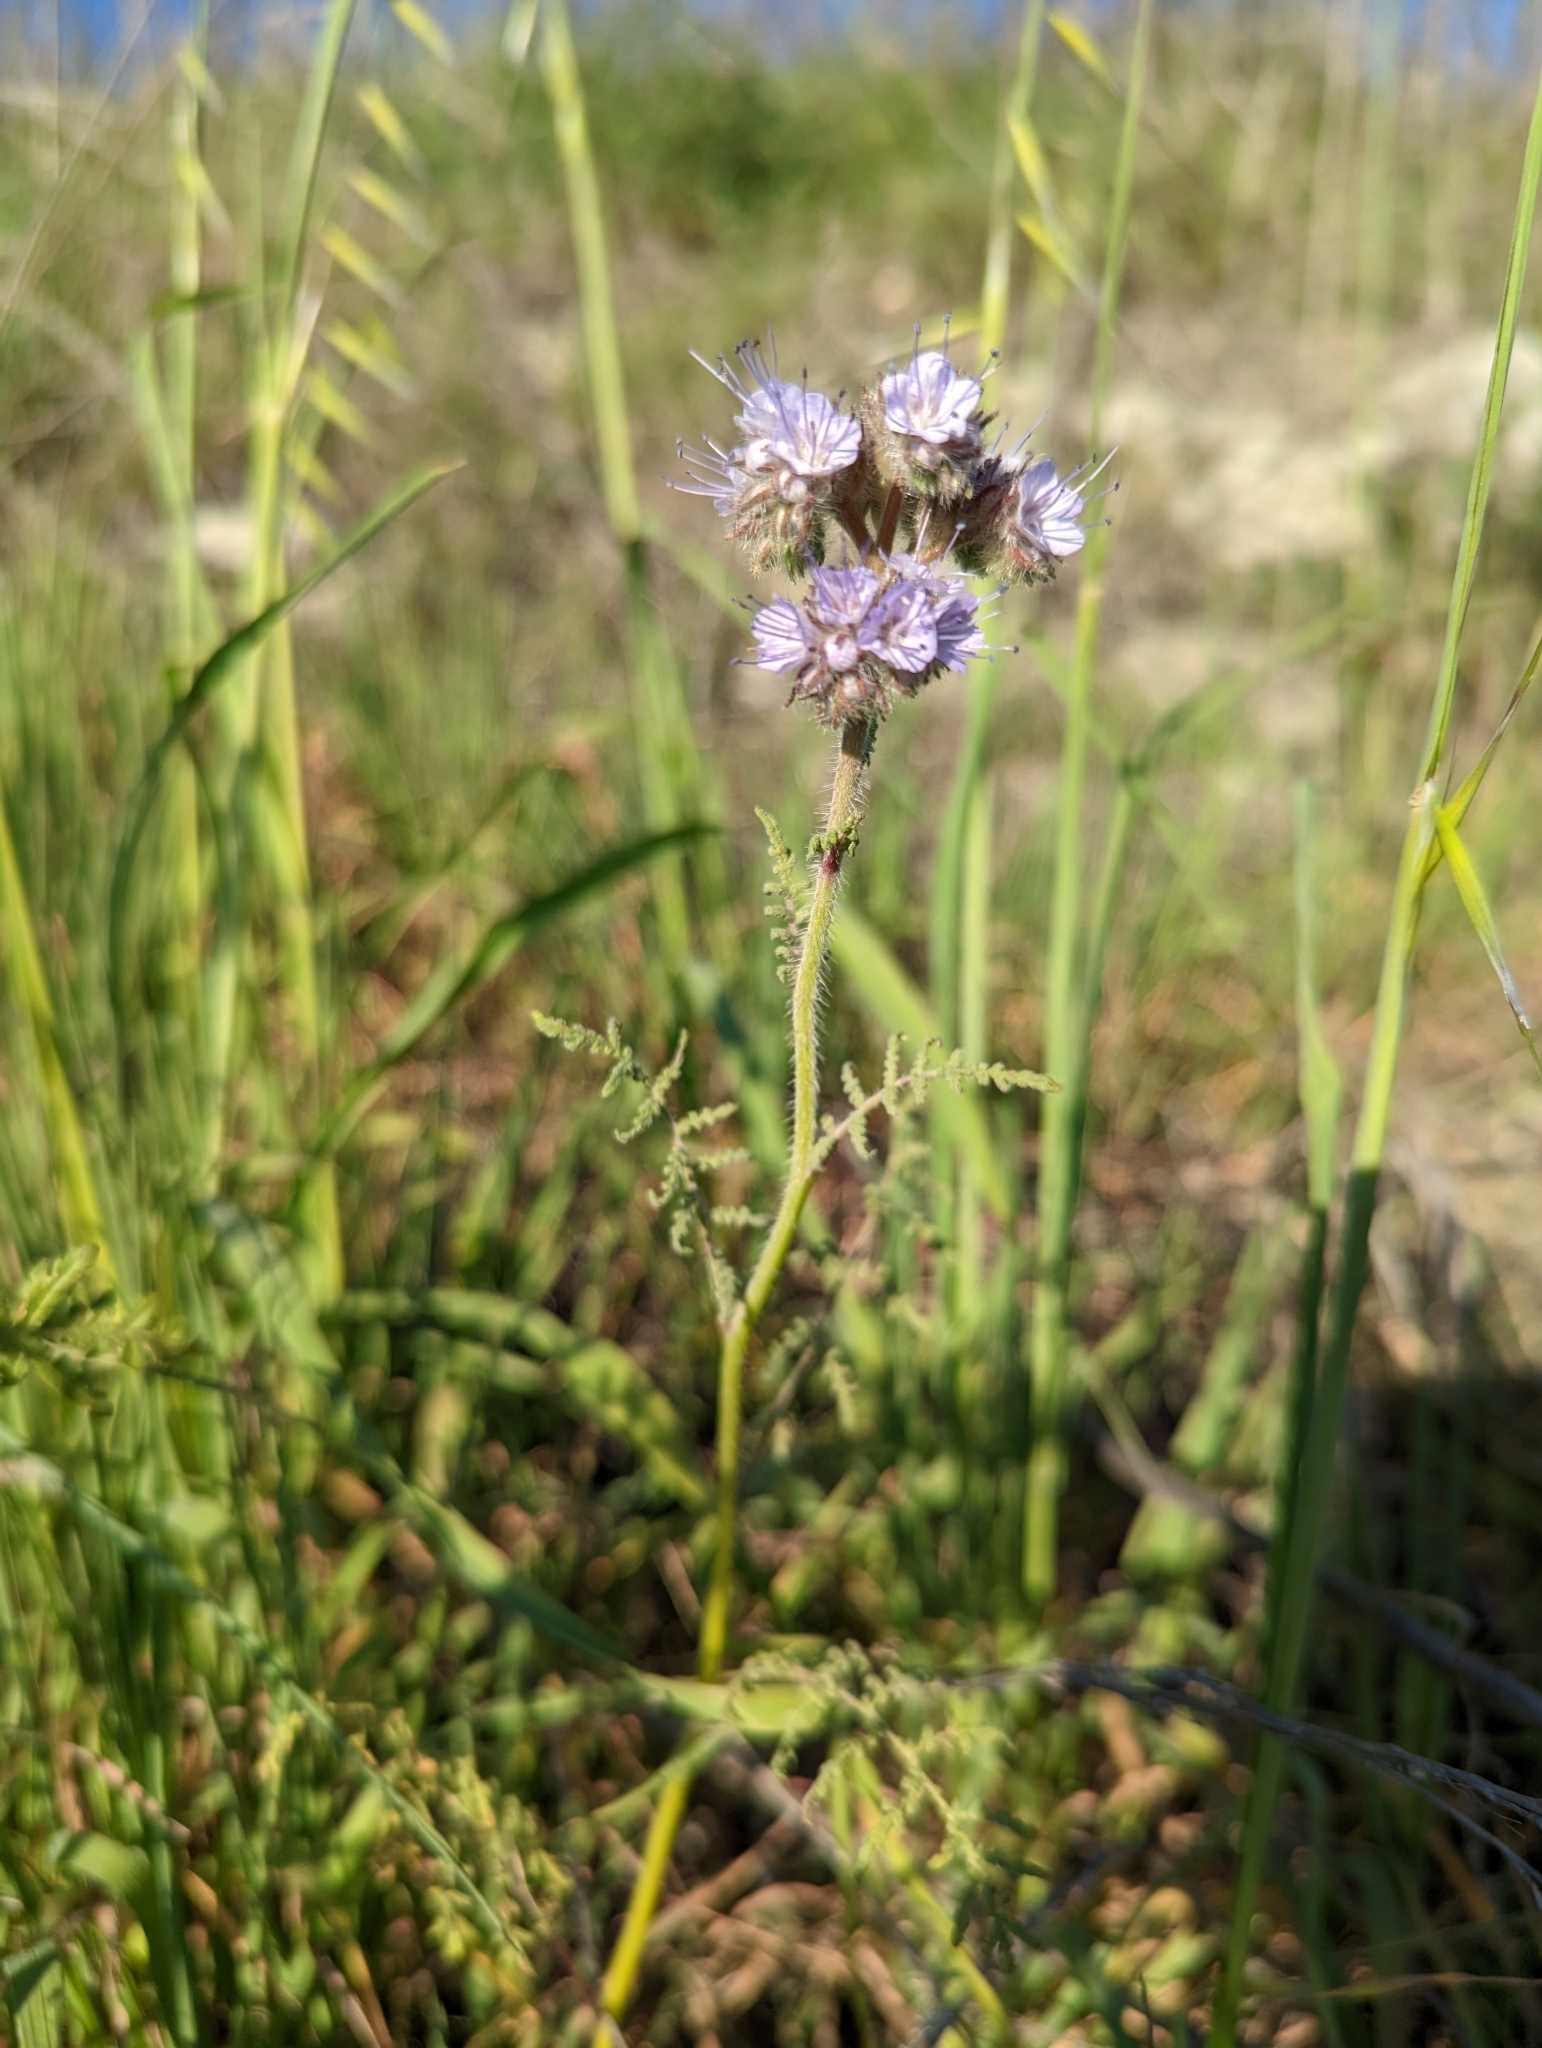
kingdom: Plantae
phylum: Tracheophyta
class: Magnoliopsida
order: Boraginales
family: Hydrophyllaceae
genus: Phacelia
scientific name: Phacelia tanacetifolia
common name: Phacelia
